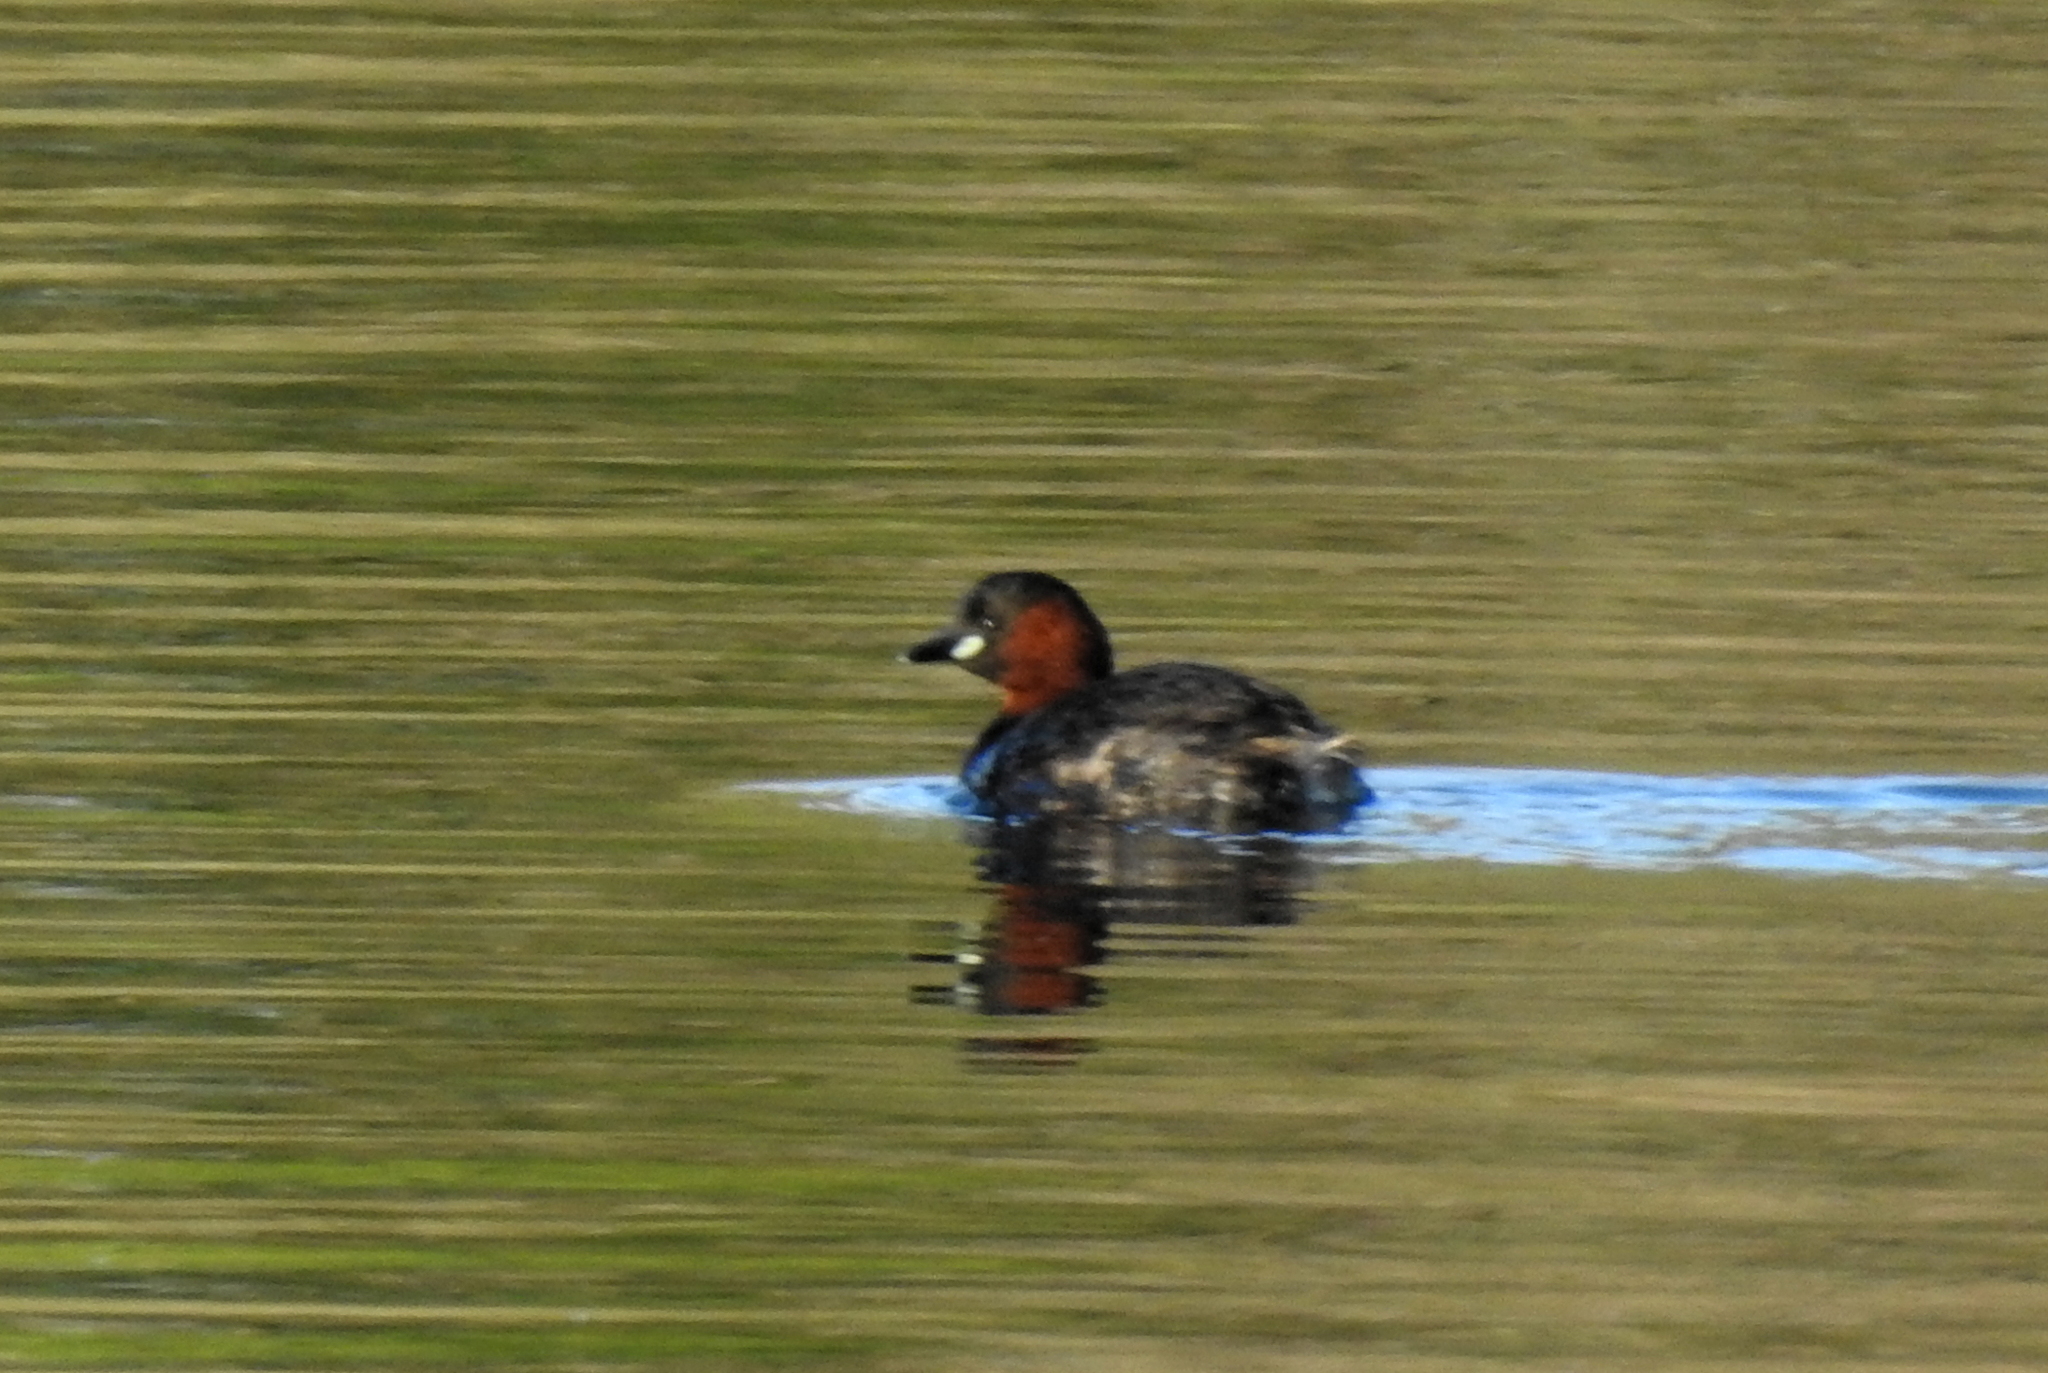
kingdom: Animalia
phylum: Chordata
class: Aves
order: Podicipediformes
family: Podicipedidae
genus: Tachybaptus
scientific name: Tachybaptus ruficollis
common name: Little grebe
